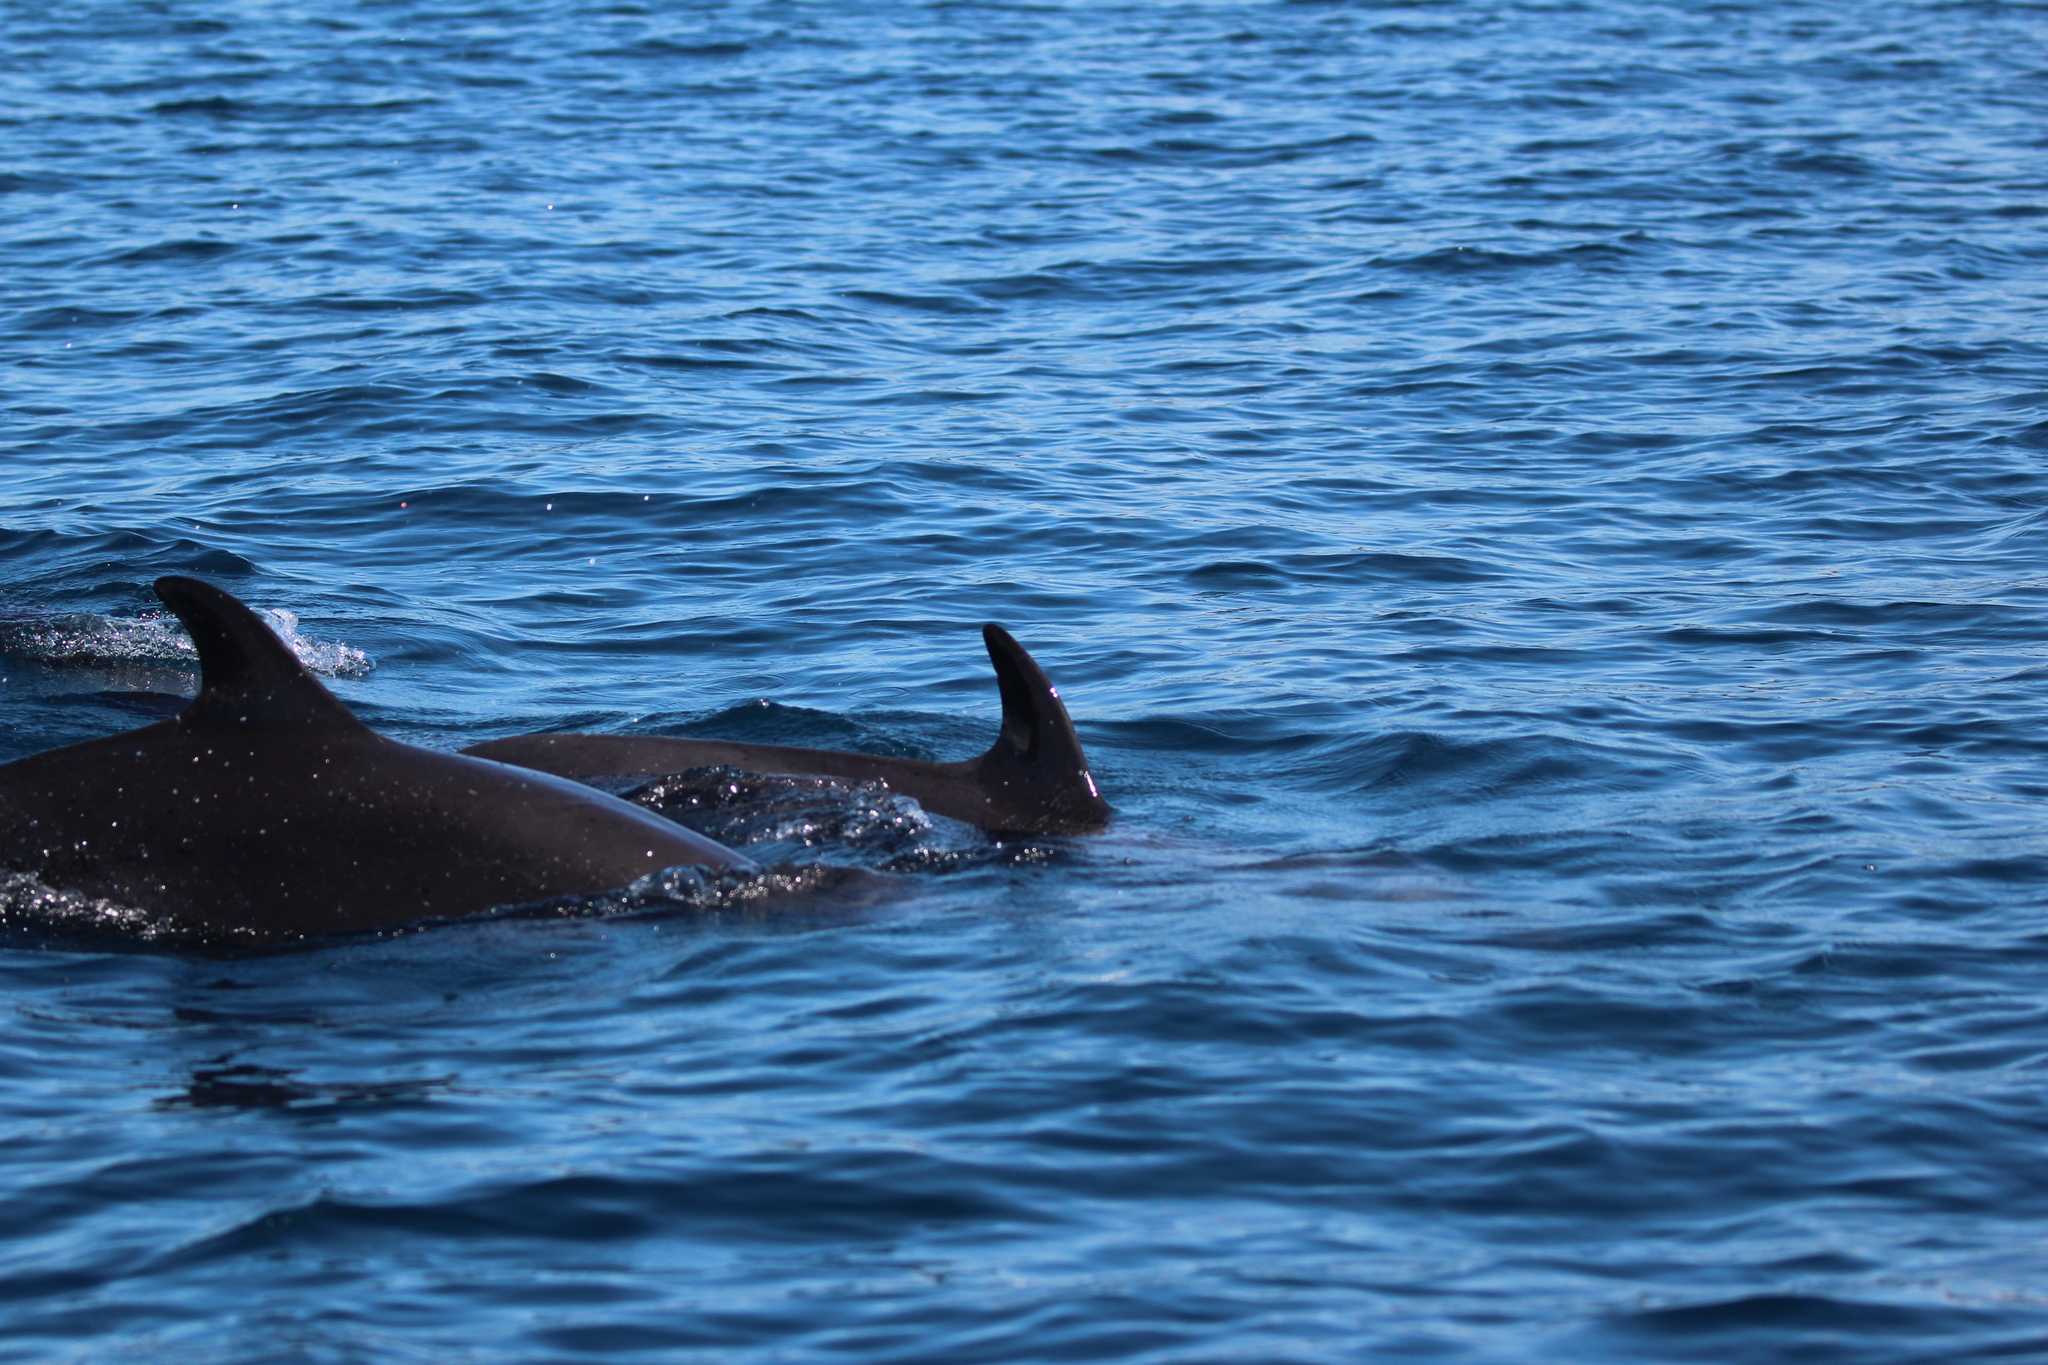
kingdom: Animalia
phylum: Chordata
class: Mammalia
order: Cetacea
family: Delphinidae
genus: Stenella
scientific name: Stenella attenuata
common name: Pantropical spotted dolphin
